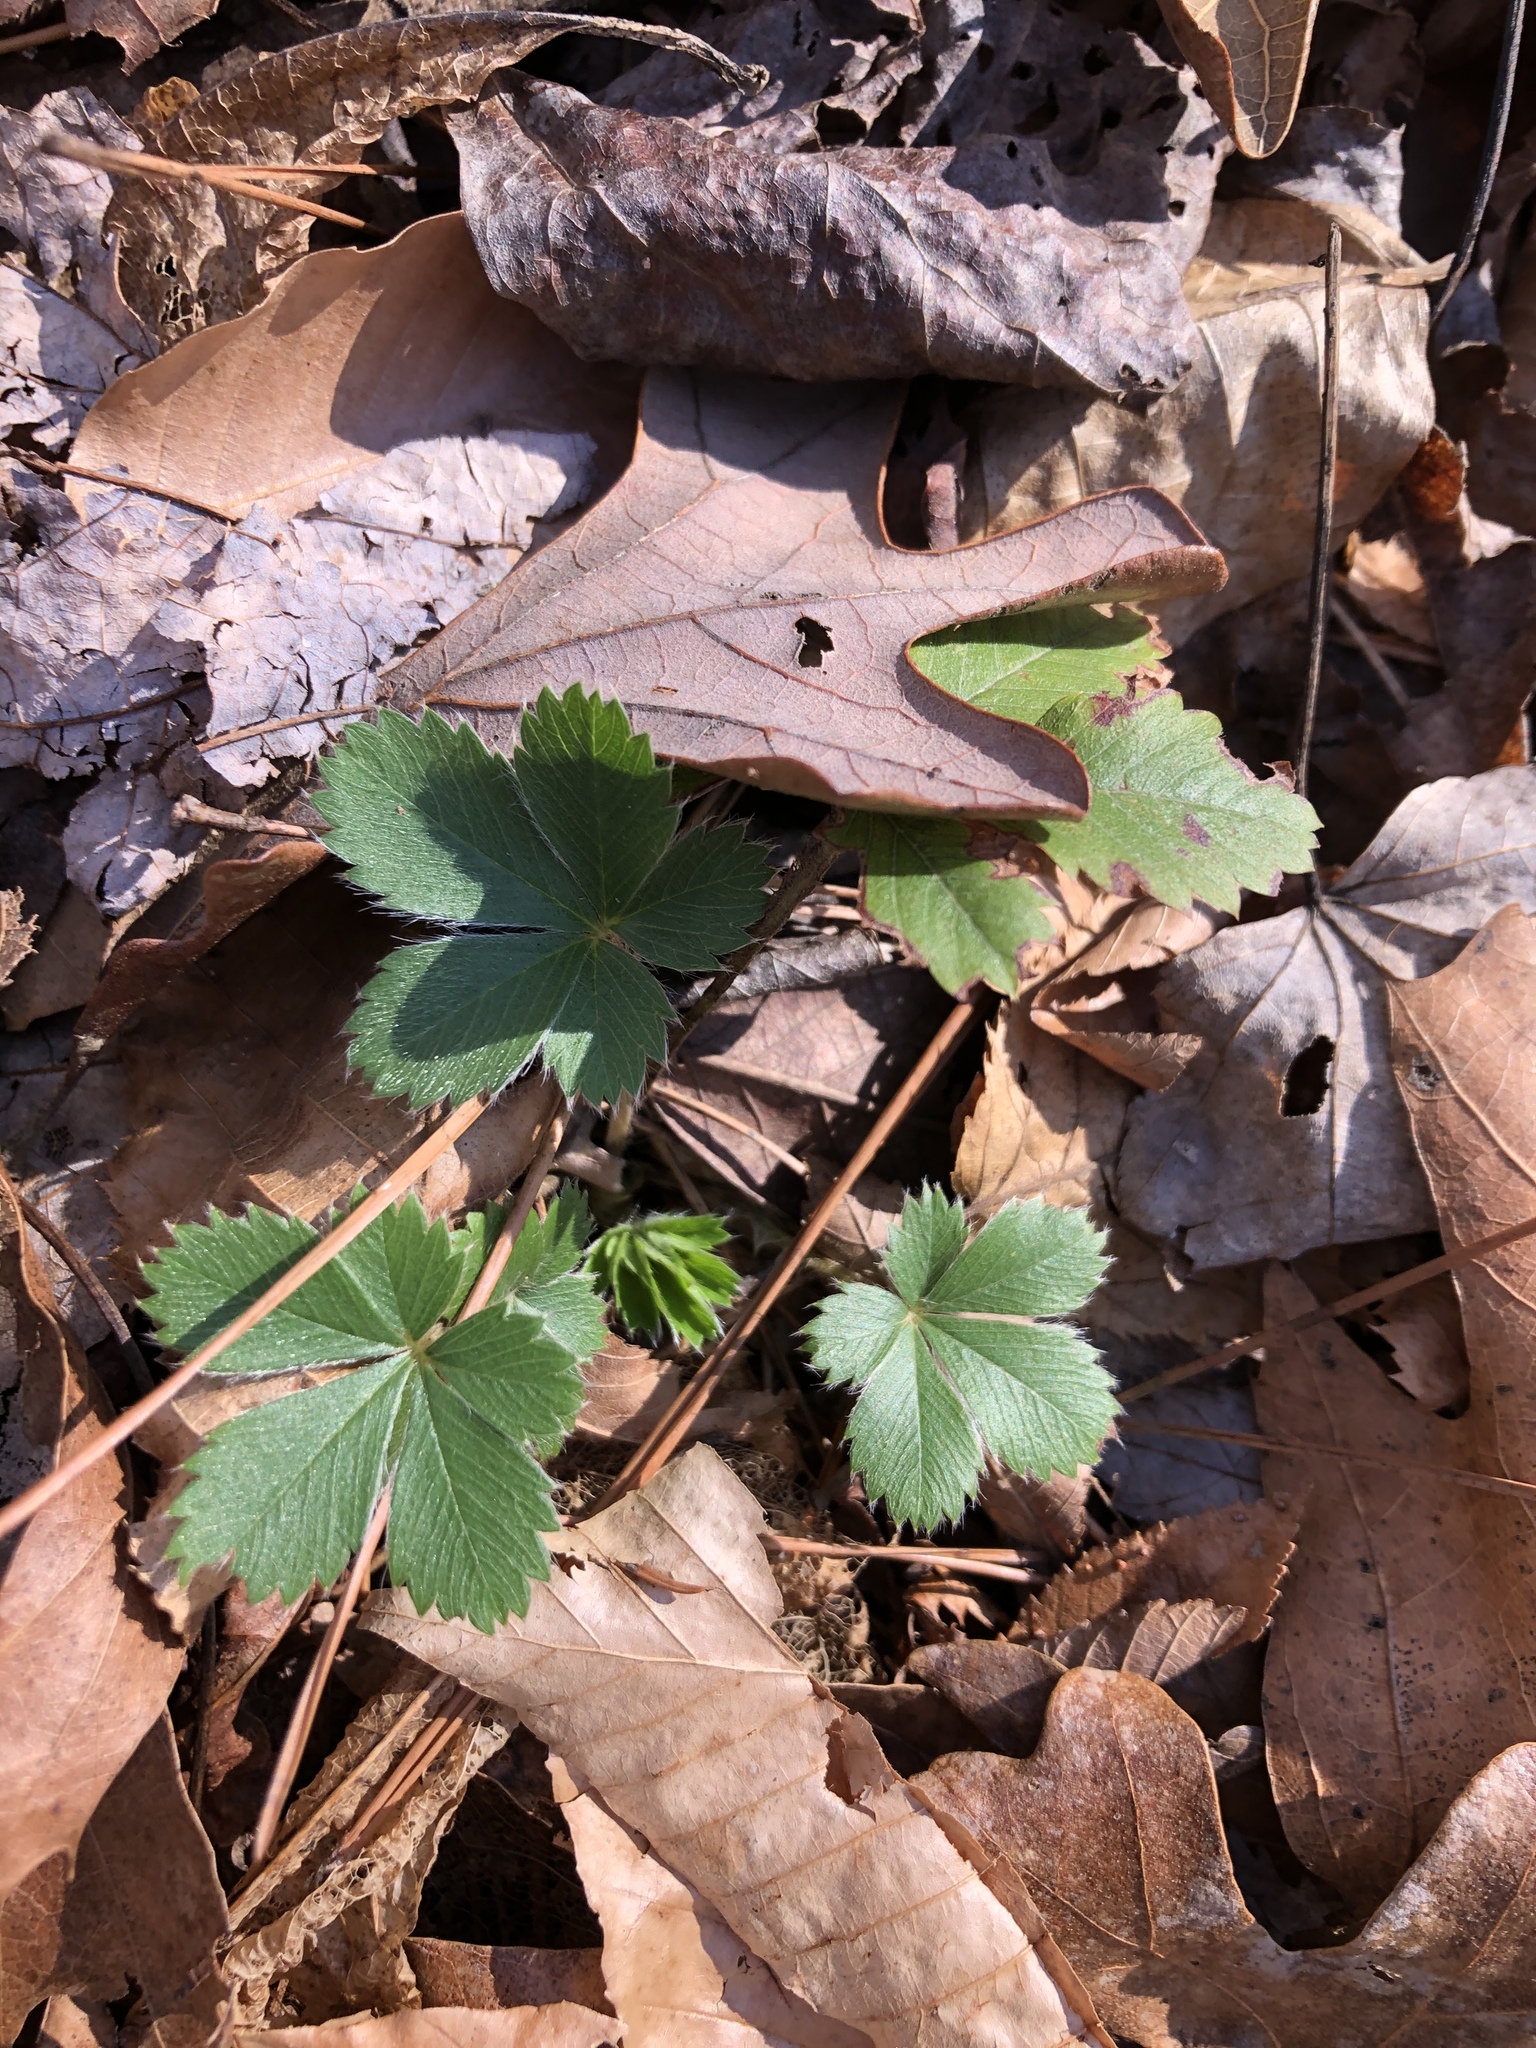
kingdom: Plantae
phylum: Tracheophyta
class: Magnoliopsida
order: Rosales
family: Rosaceae
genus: Potentilla
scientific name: Potentilla
